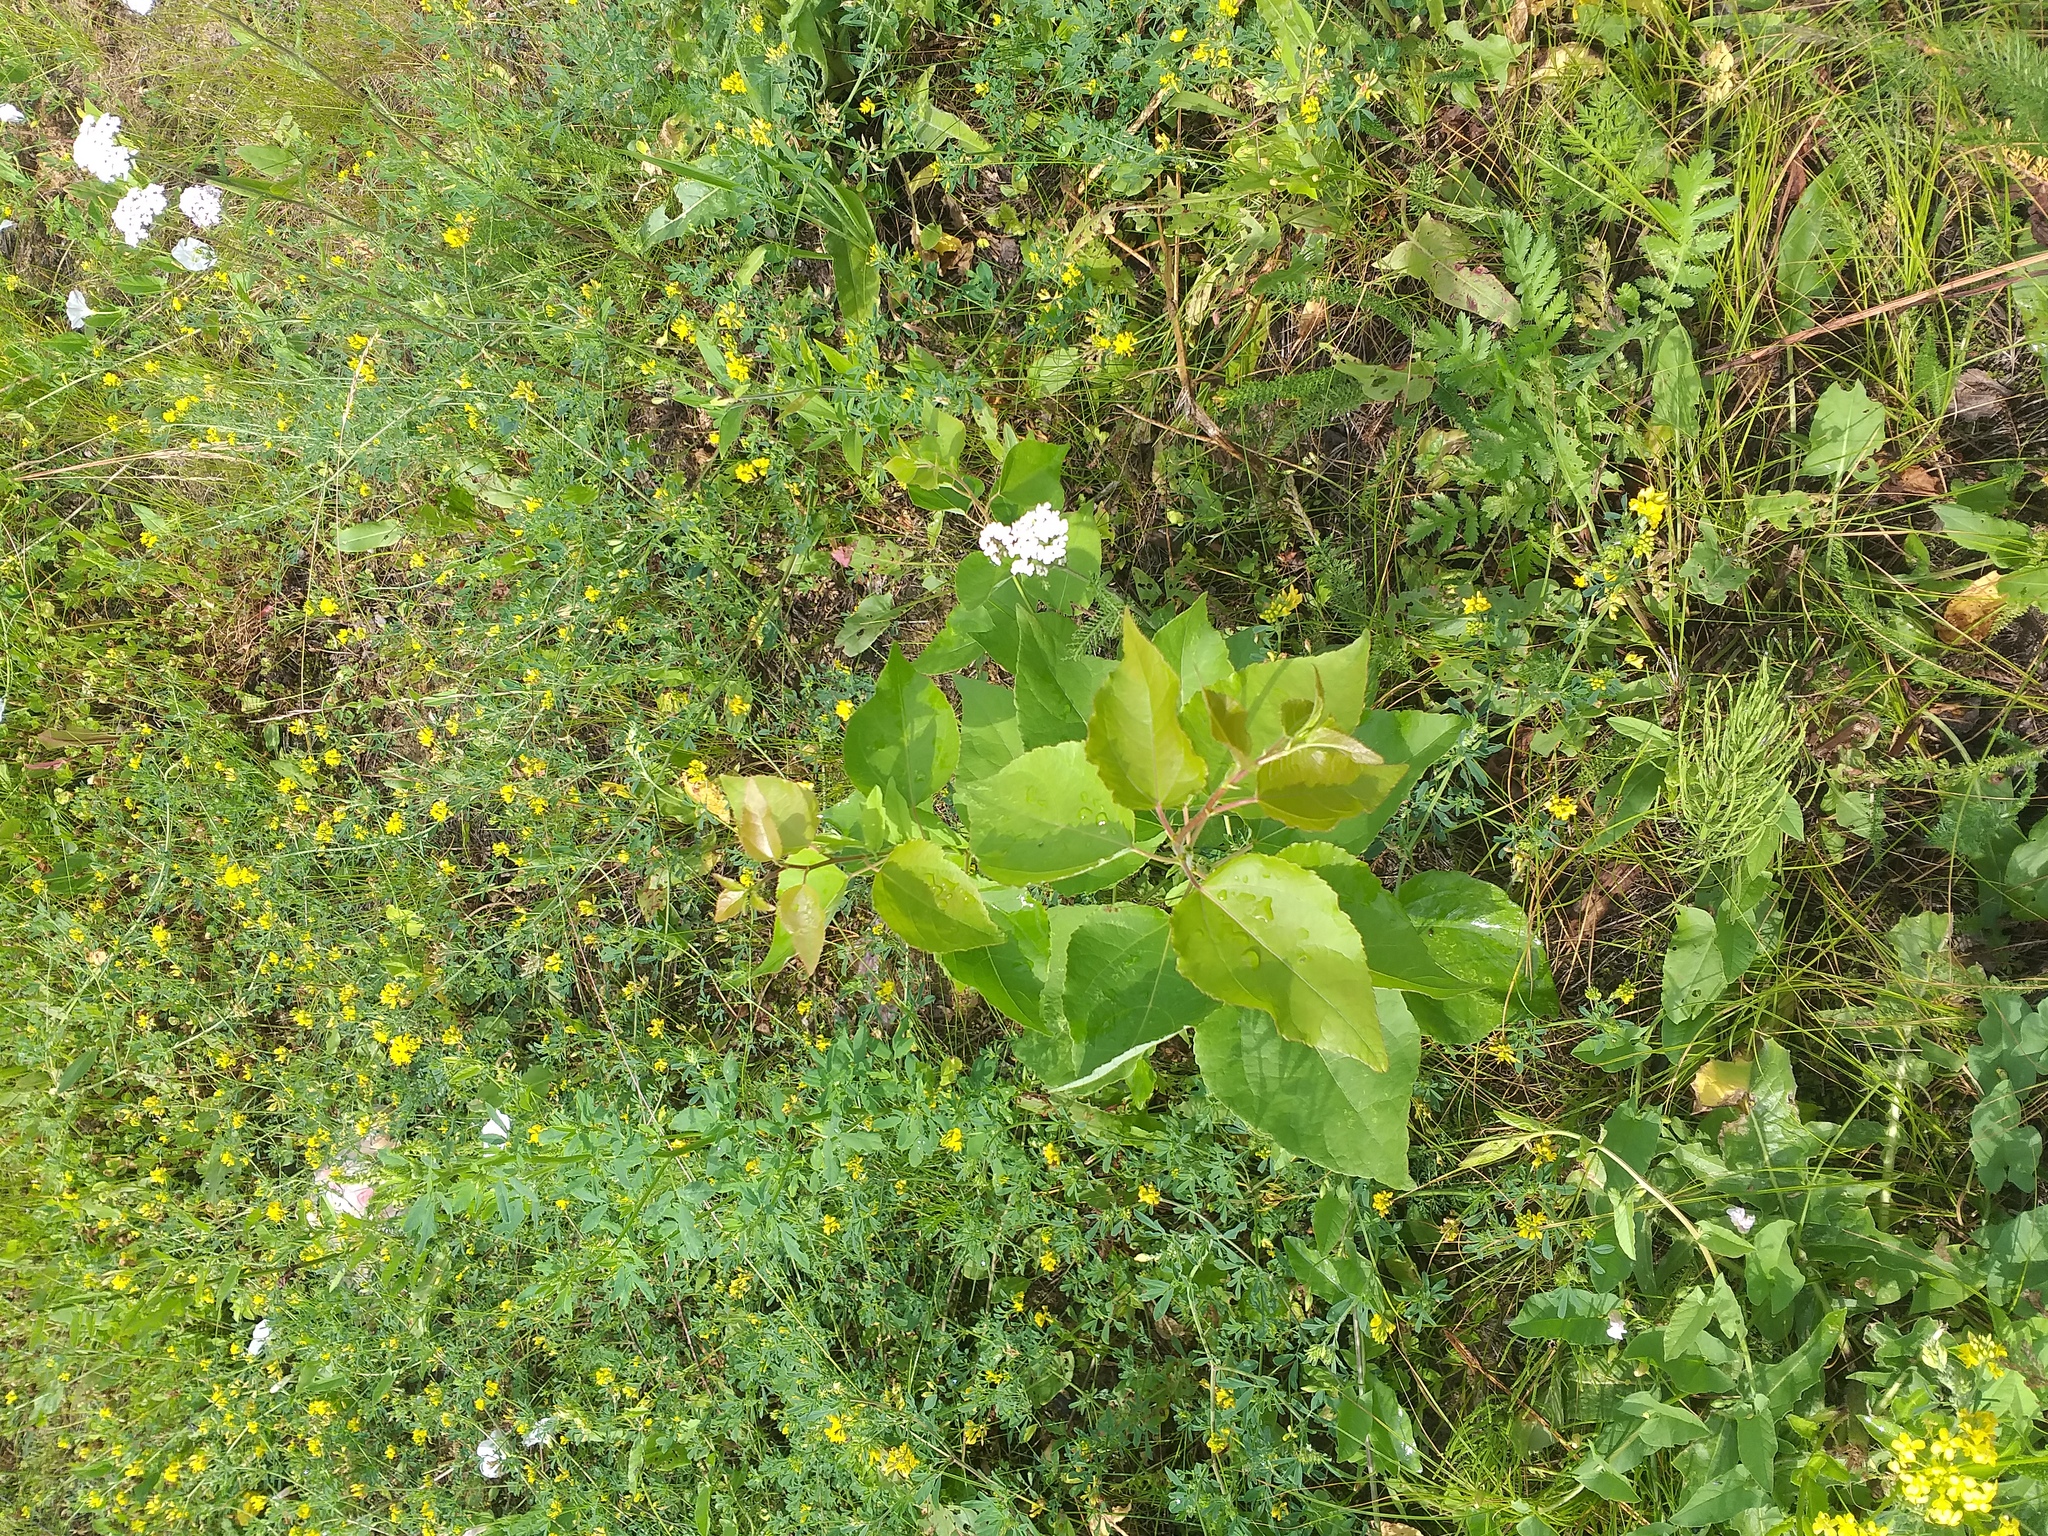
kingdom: Plantae
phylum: Tracheophyta
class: Magnoliopsida
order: Malpighiales
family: Salicaceae
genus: Populus
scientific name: Populus tremula
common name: European aspen
